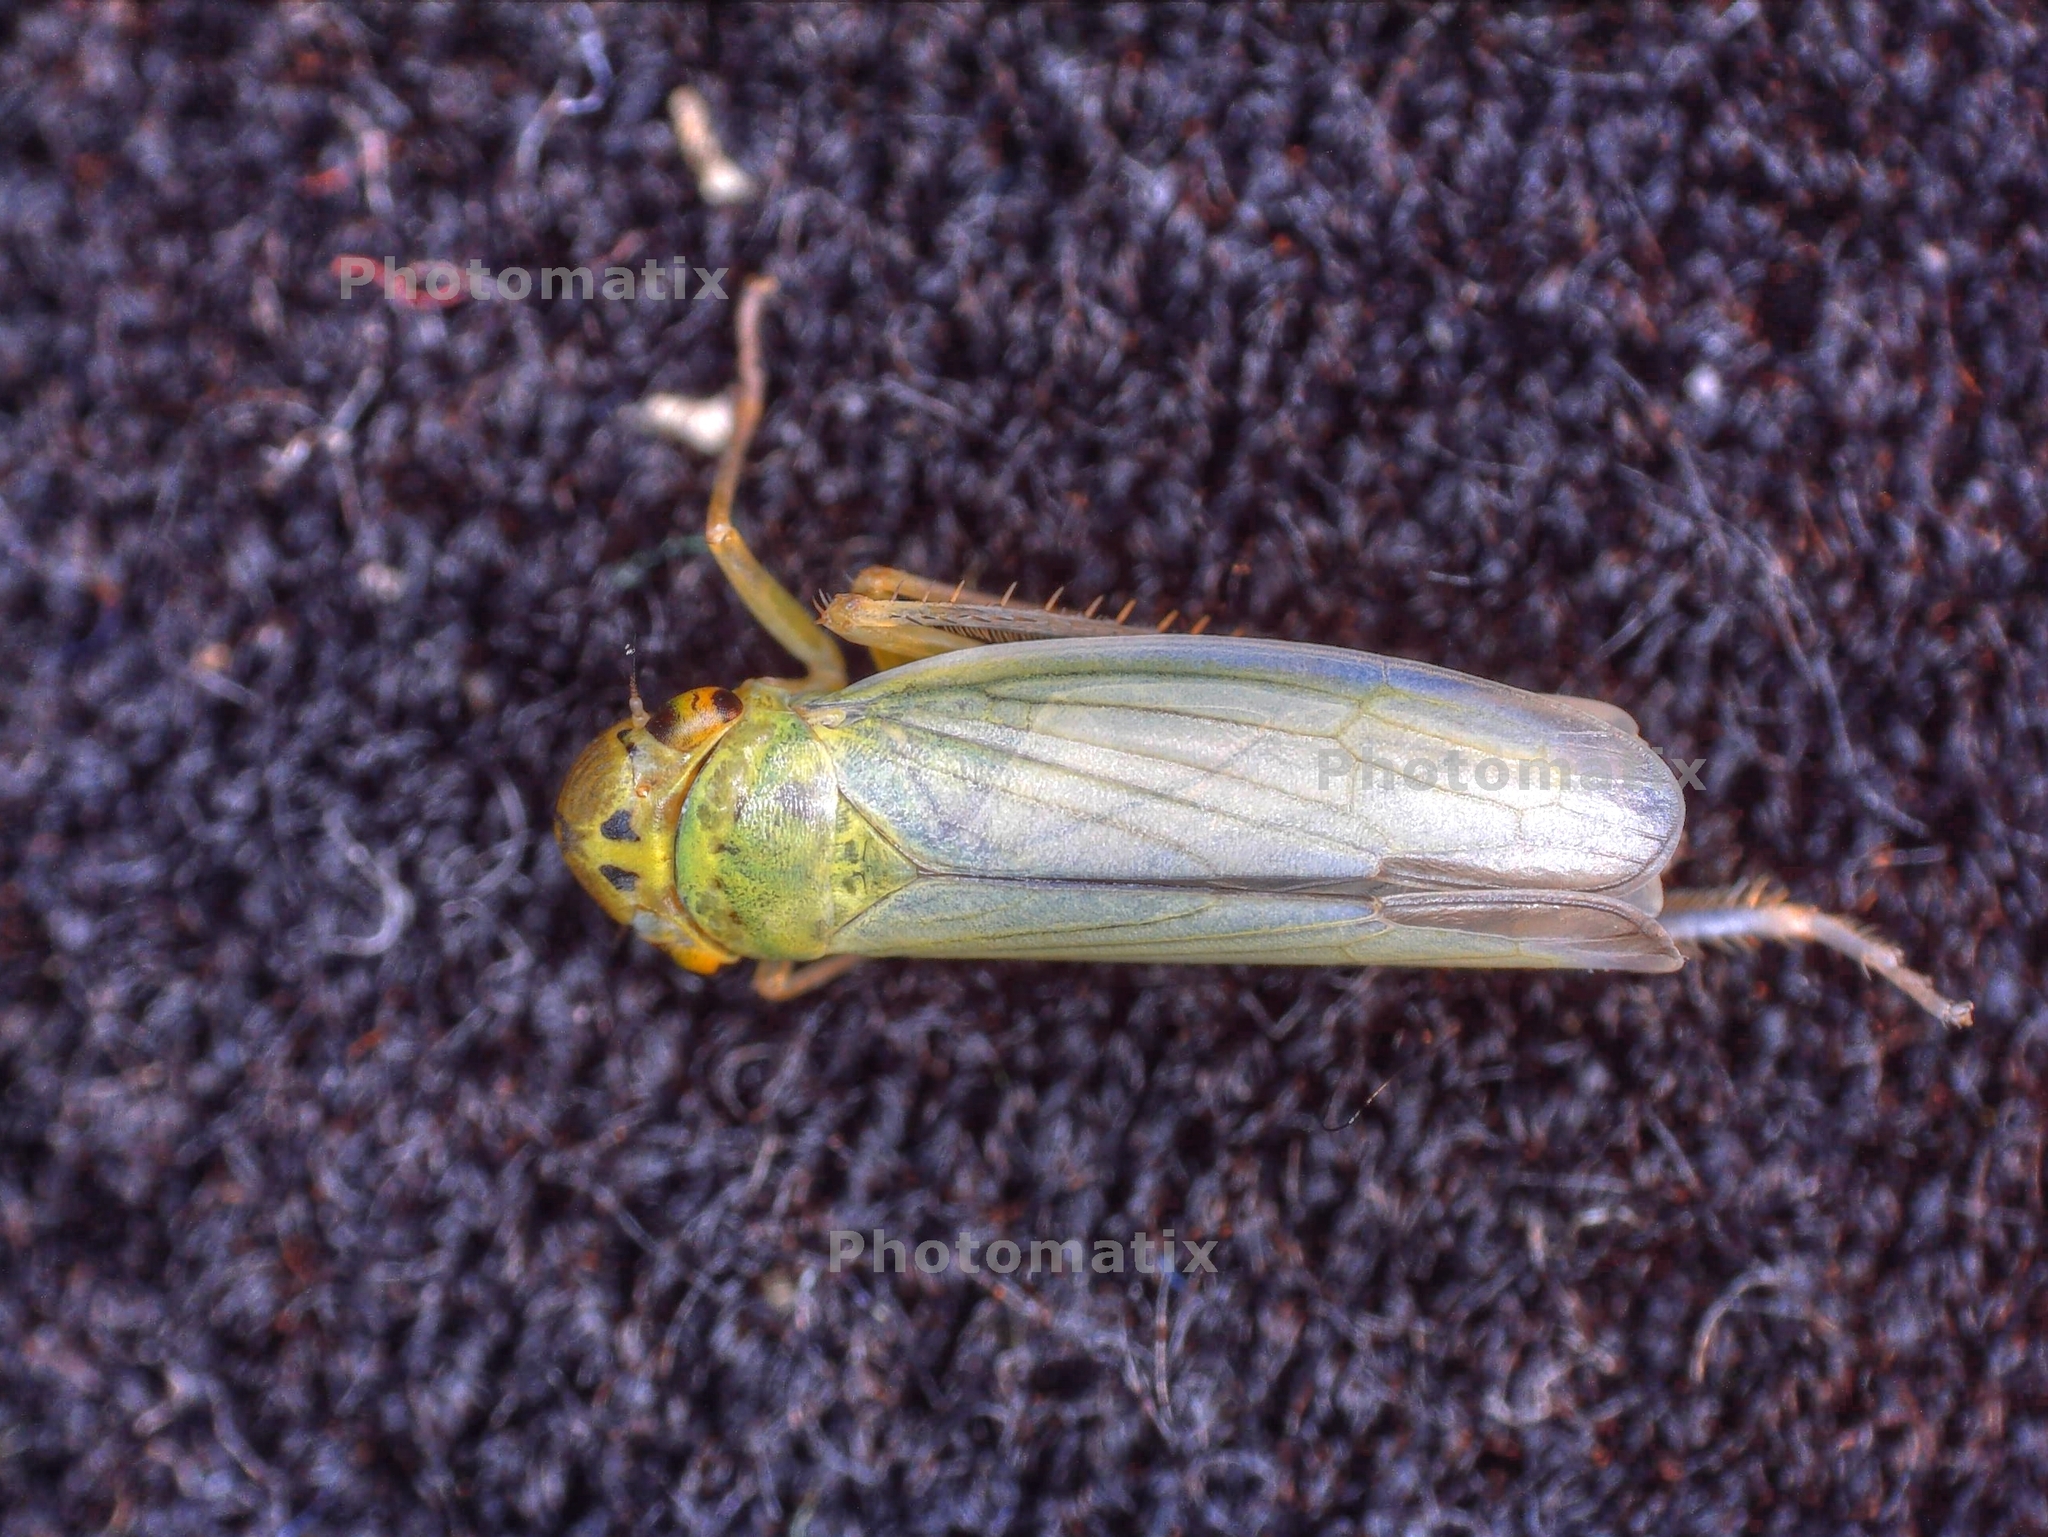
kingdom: Animalia
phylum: Arthropoda
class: Insecta
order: Hemiptera
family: Cicadellidae
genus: Cicadella
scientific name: Cicadella viridis
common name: Leafhopper
